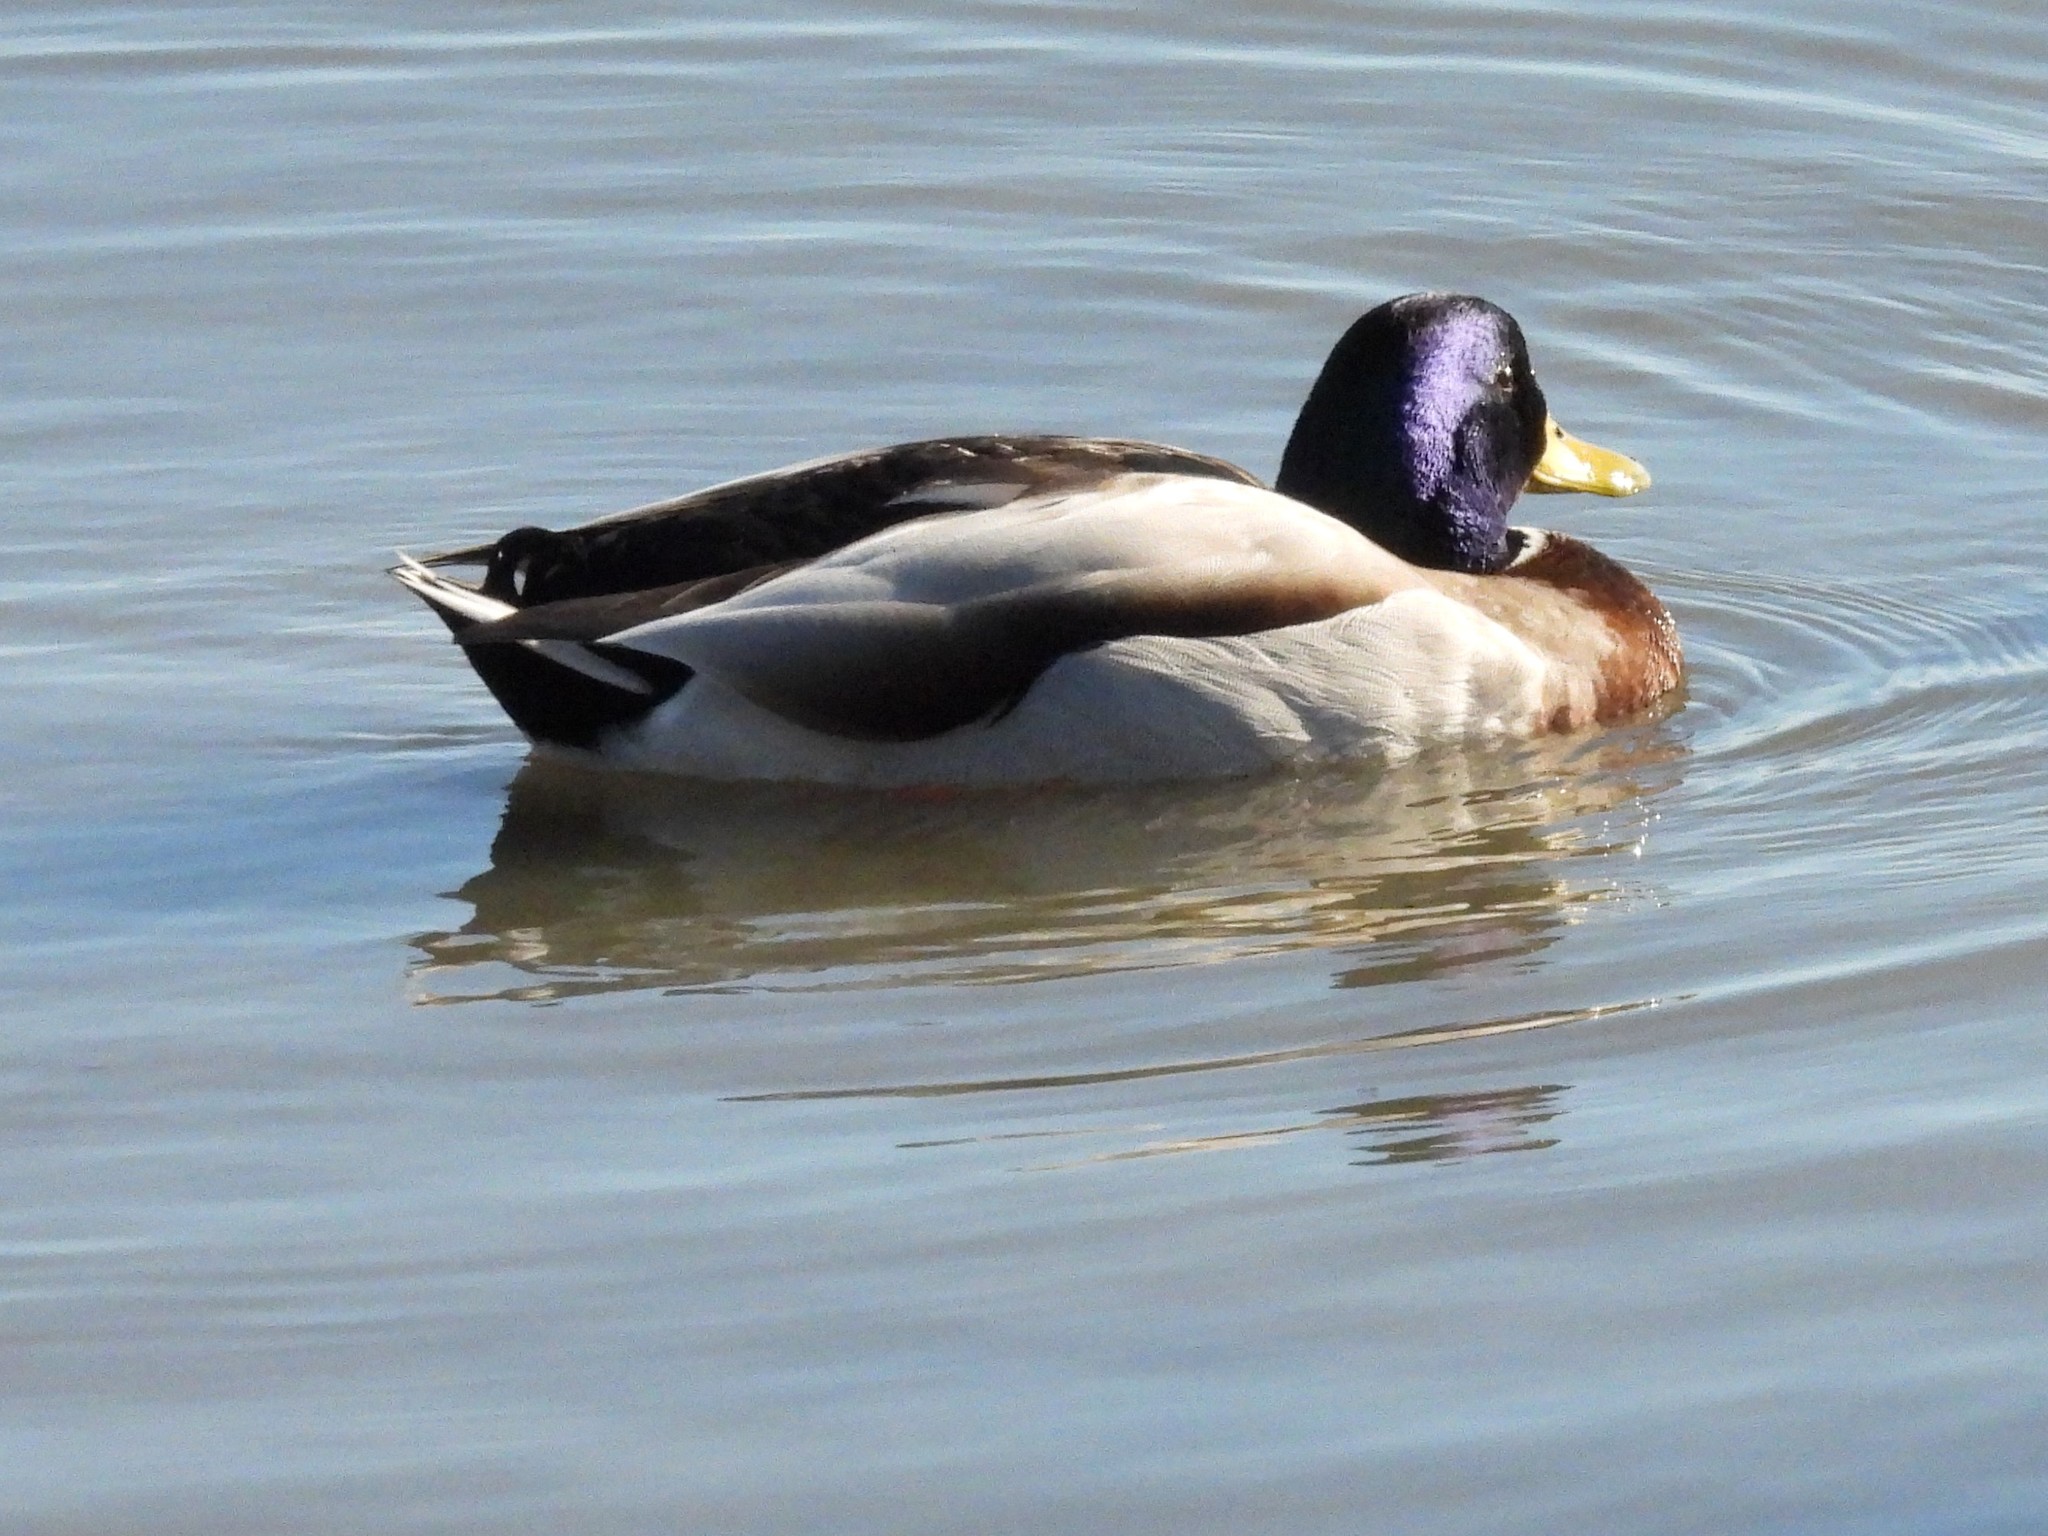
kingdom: Animalia
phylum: Chordata
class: Aves
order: Anseriformes
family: Anatidae
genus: Anas
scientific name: Anas platyrhynchos
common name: Mallard
